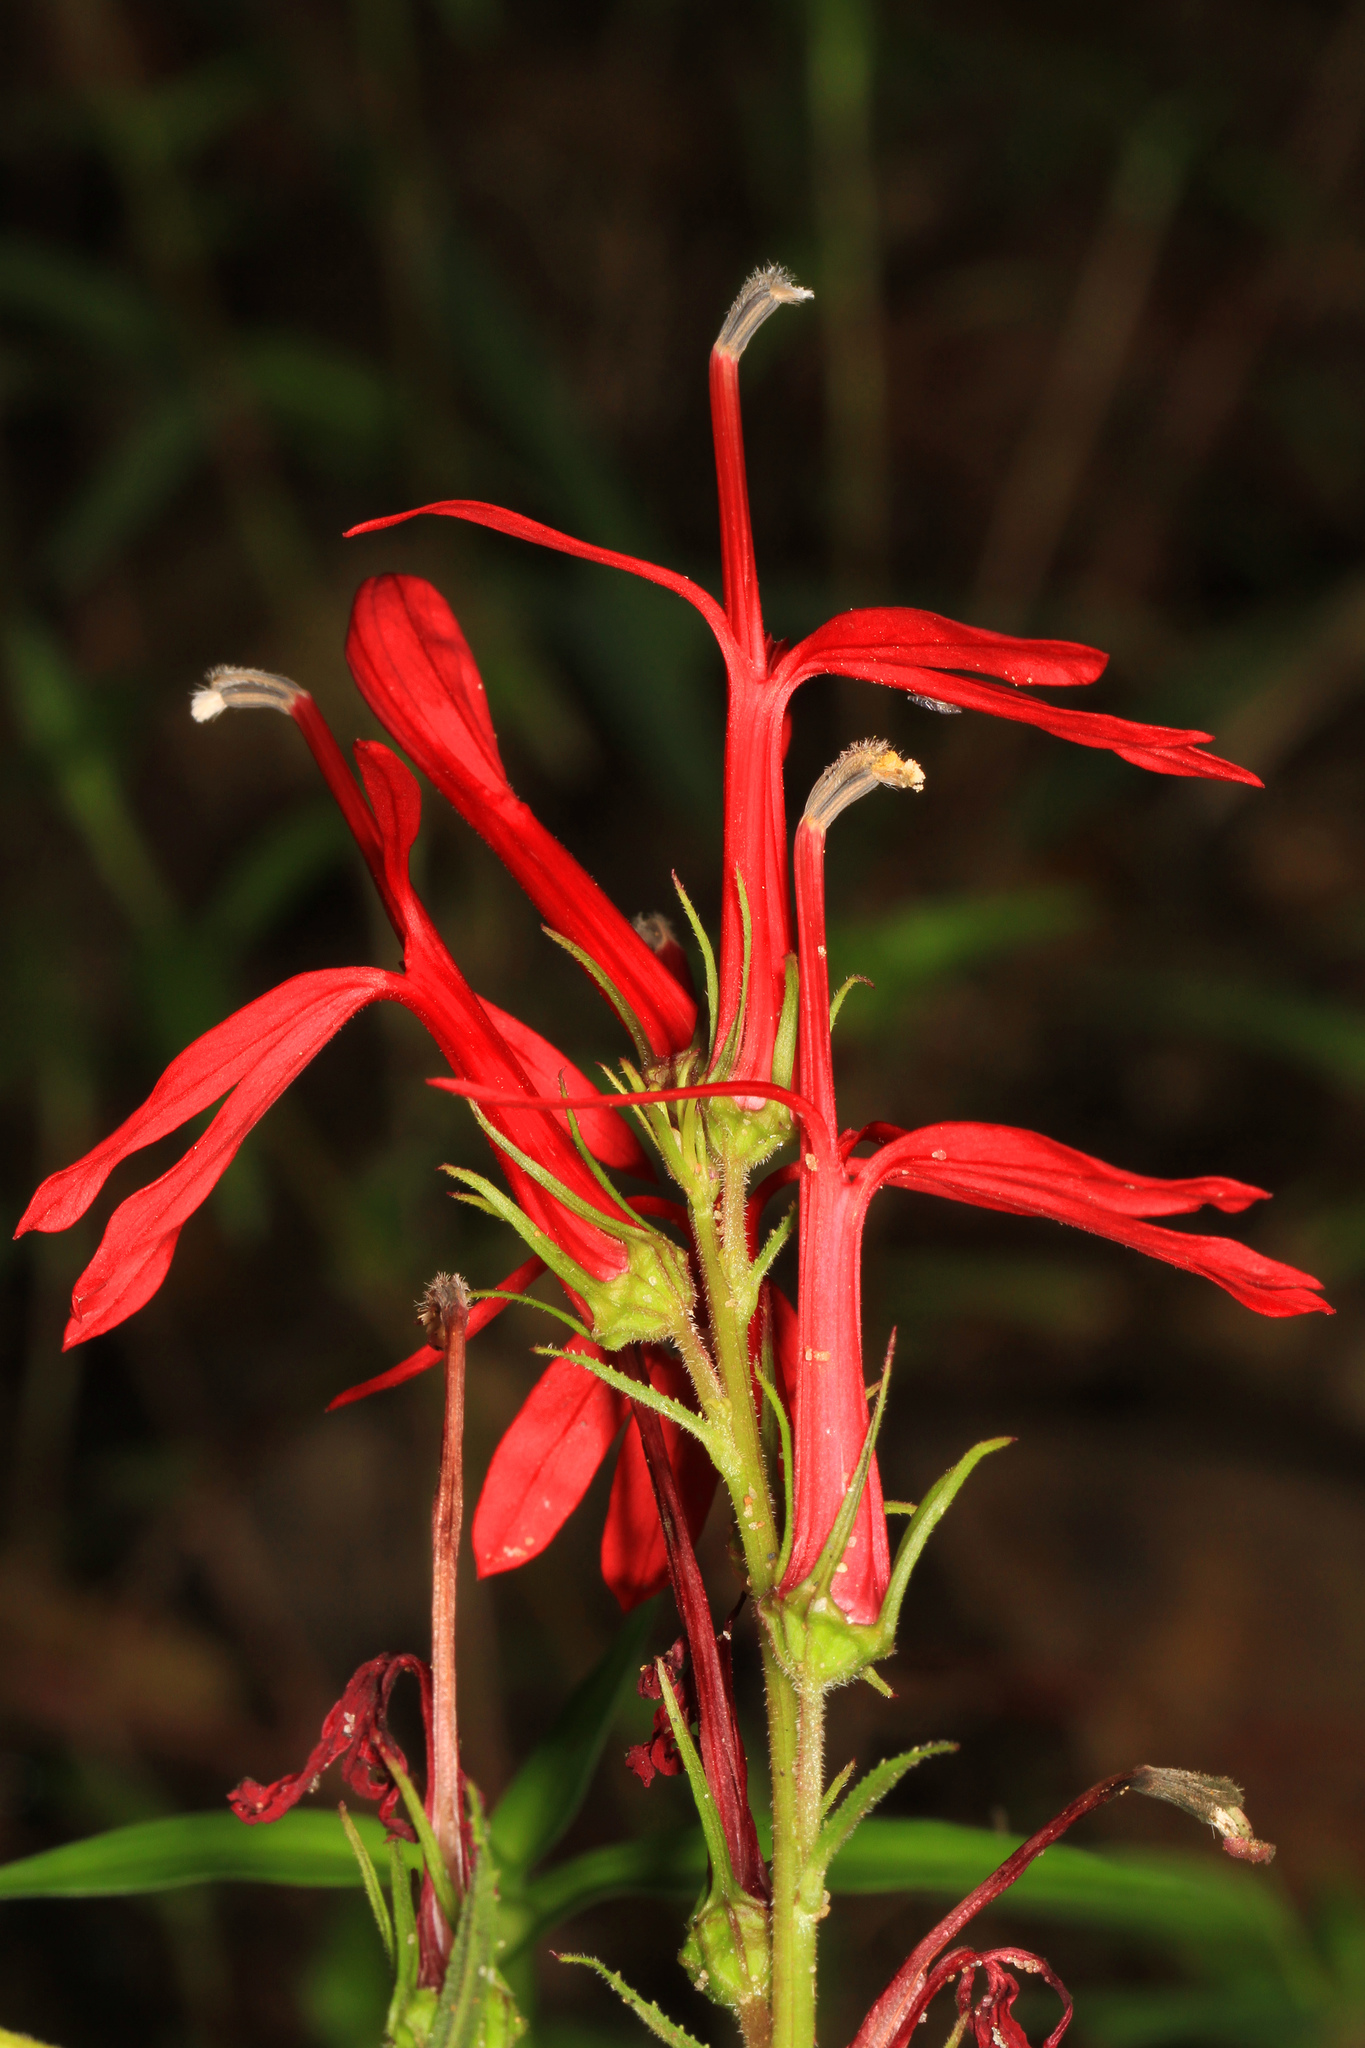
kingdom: Plantae
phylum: Tracheophyta
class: Magnoliopsida
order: Asterales
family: Campanulaceae
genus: Lobelia
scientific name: Lobelia cardinalis
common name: Cardinal flower
